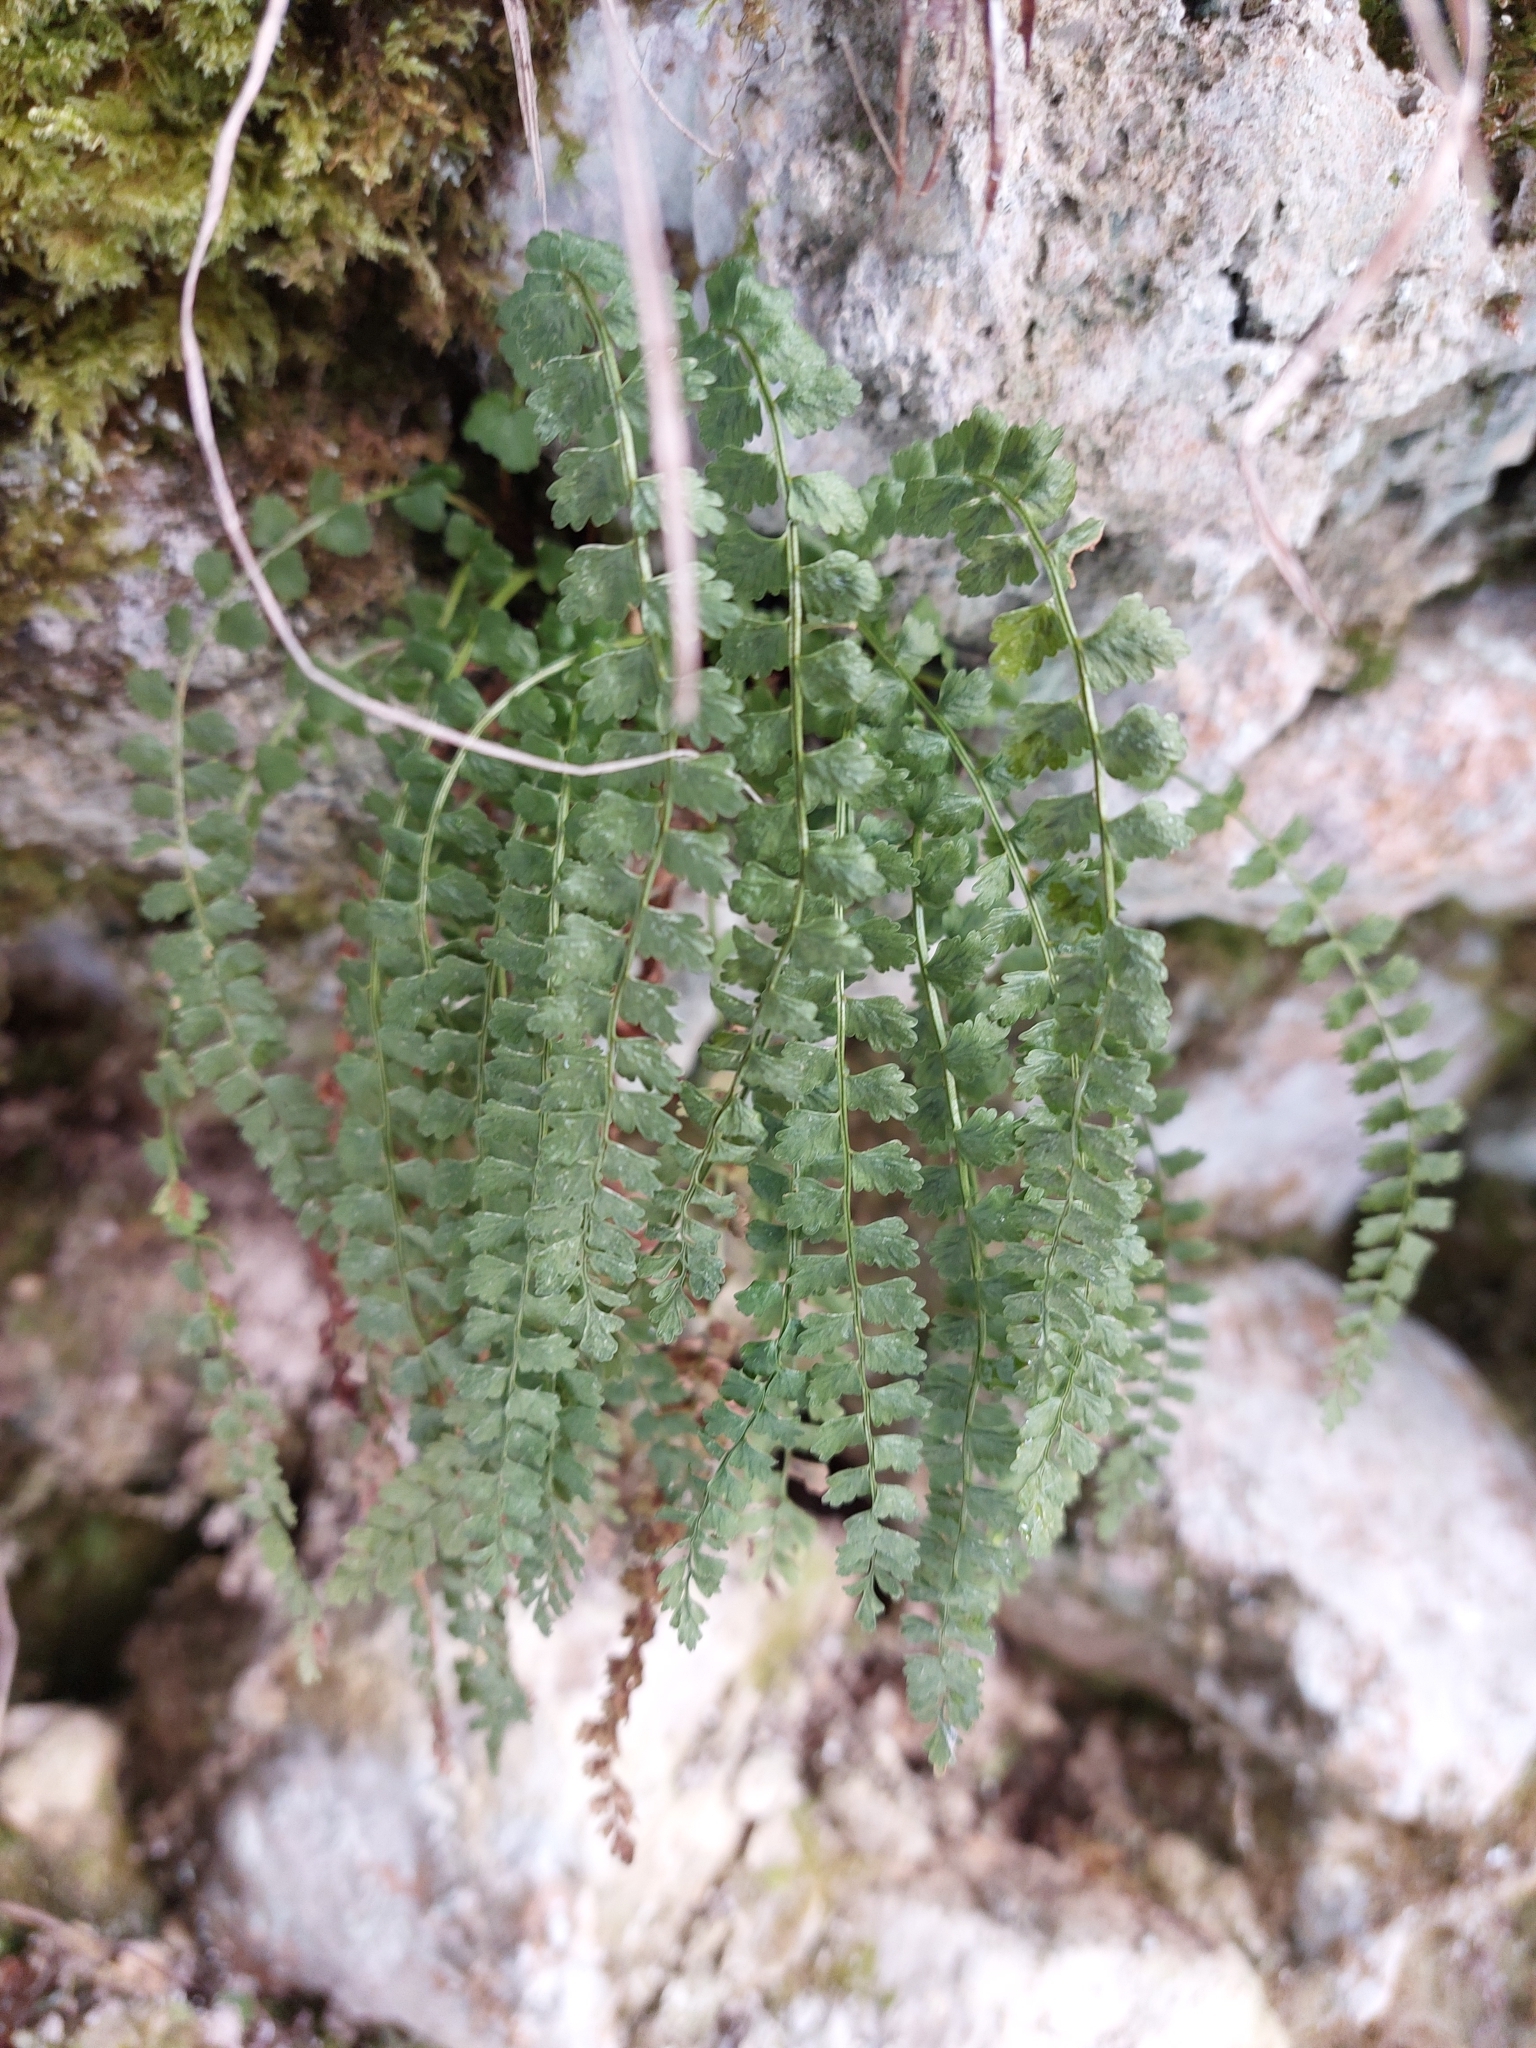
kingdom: Plantae
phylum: Tracheophyta
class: Polypodiopsida
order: Polypodiales
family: Aspleniaceae
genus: Asplenium
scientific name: Asplenium viride
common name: Green spleenwort
